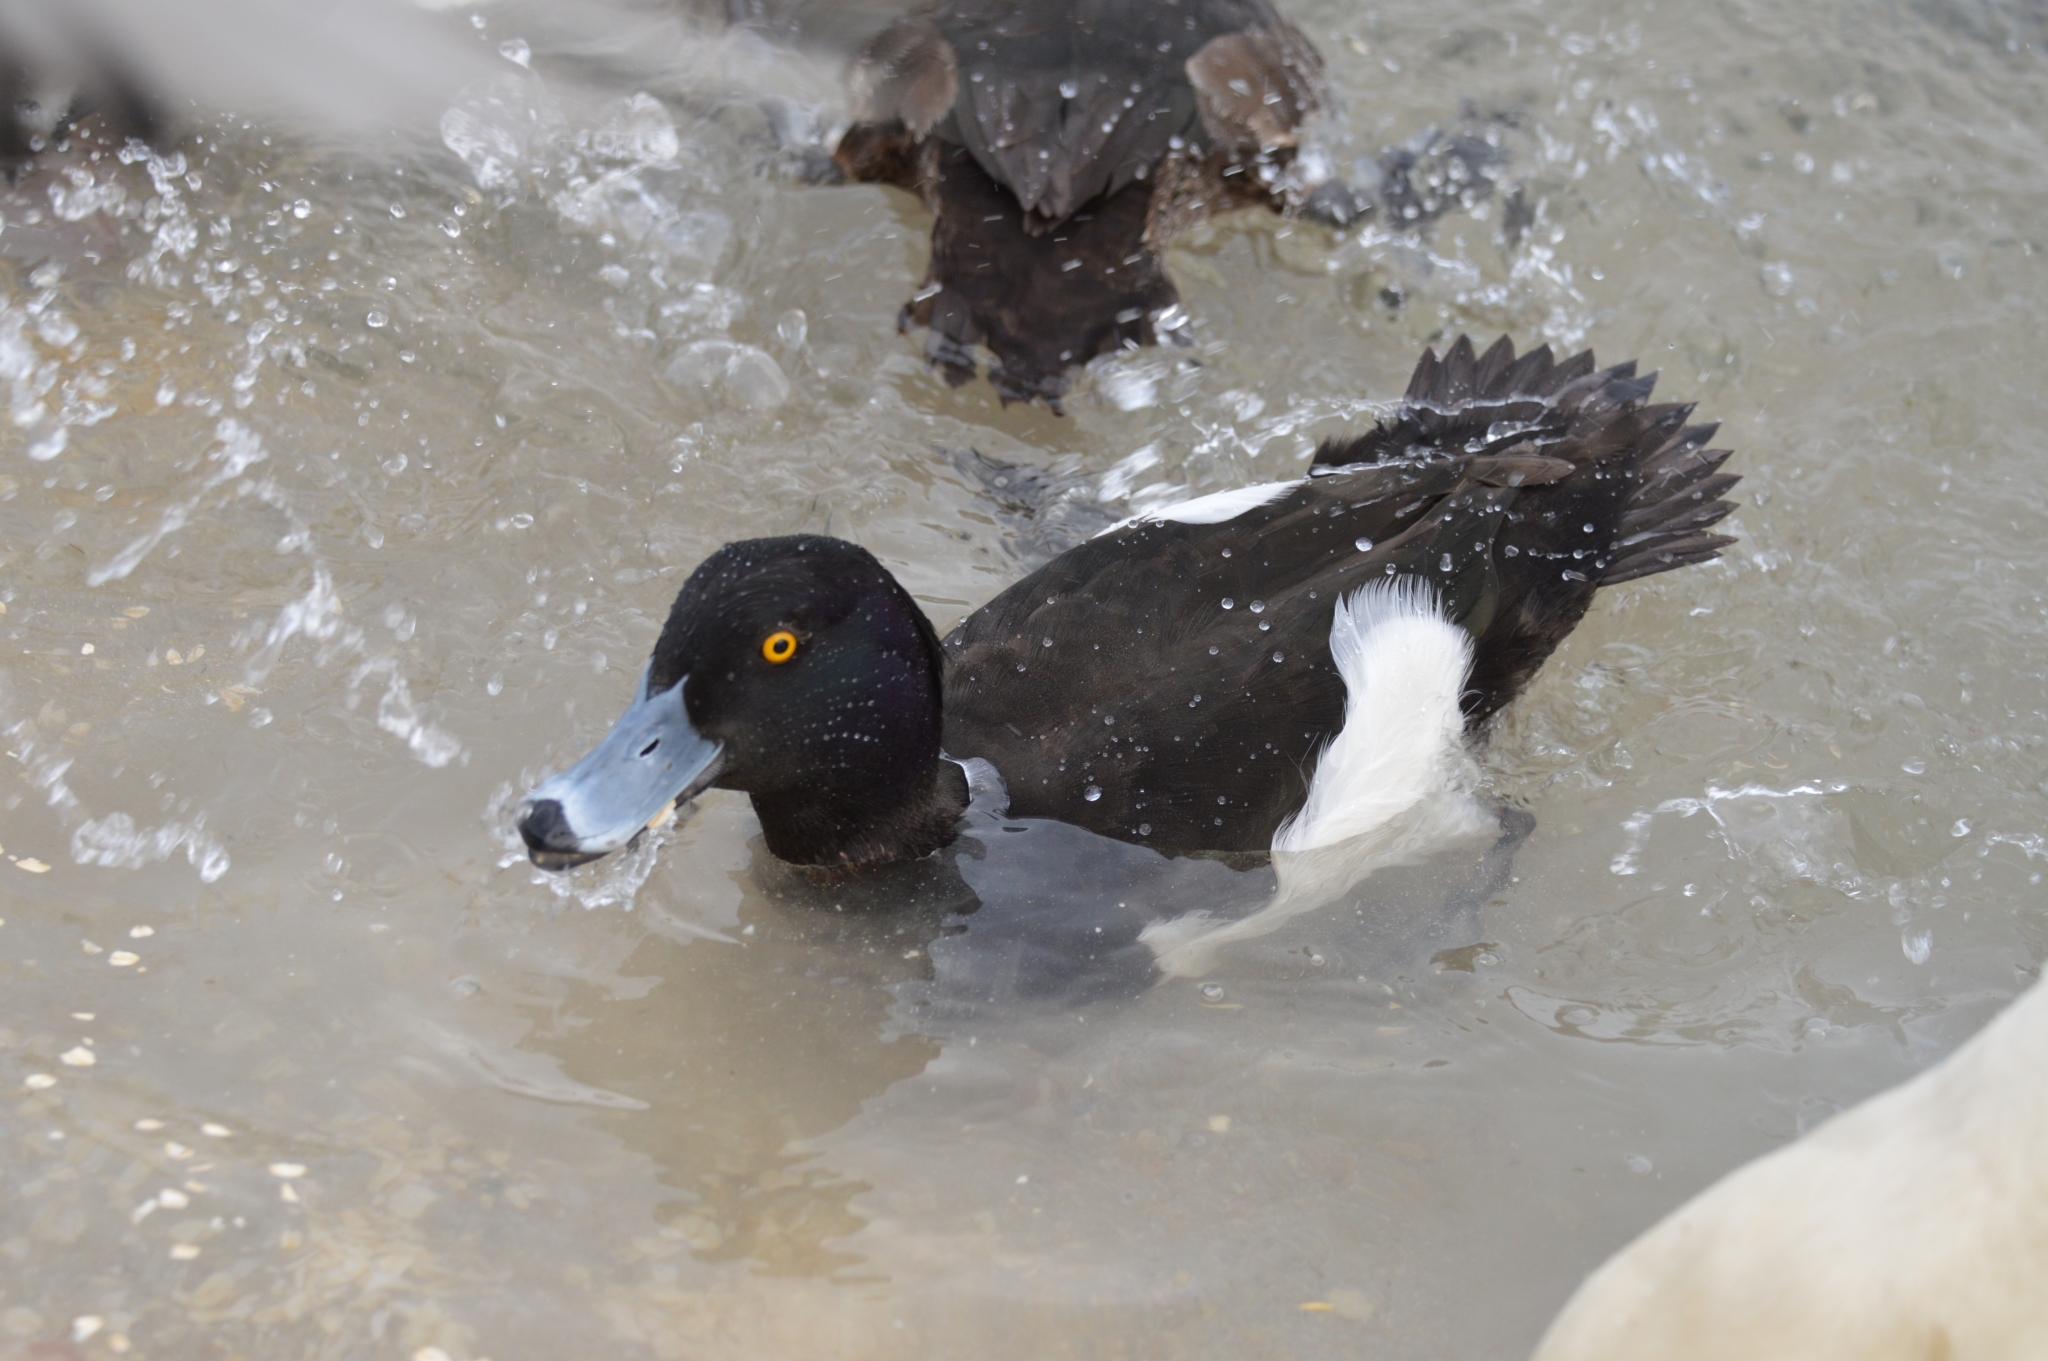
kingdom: Animalia
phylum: Chordata
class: Aves
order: Anseriformes
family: Anatidae
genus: Aythya
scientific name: Aythya fuligula
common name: Tufted duck
